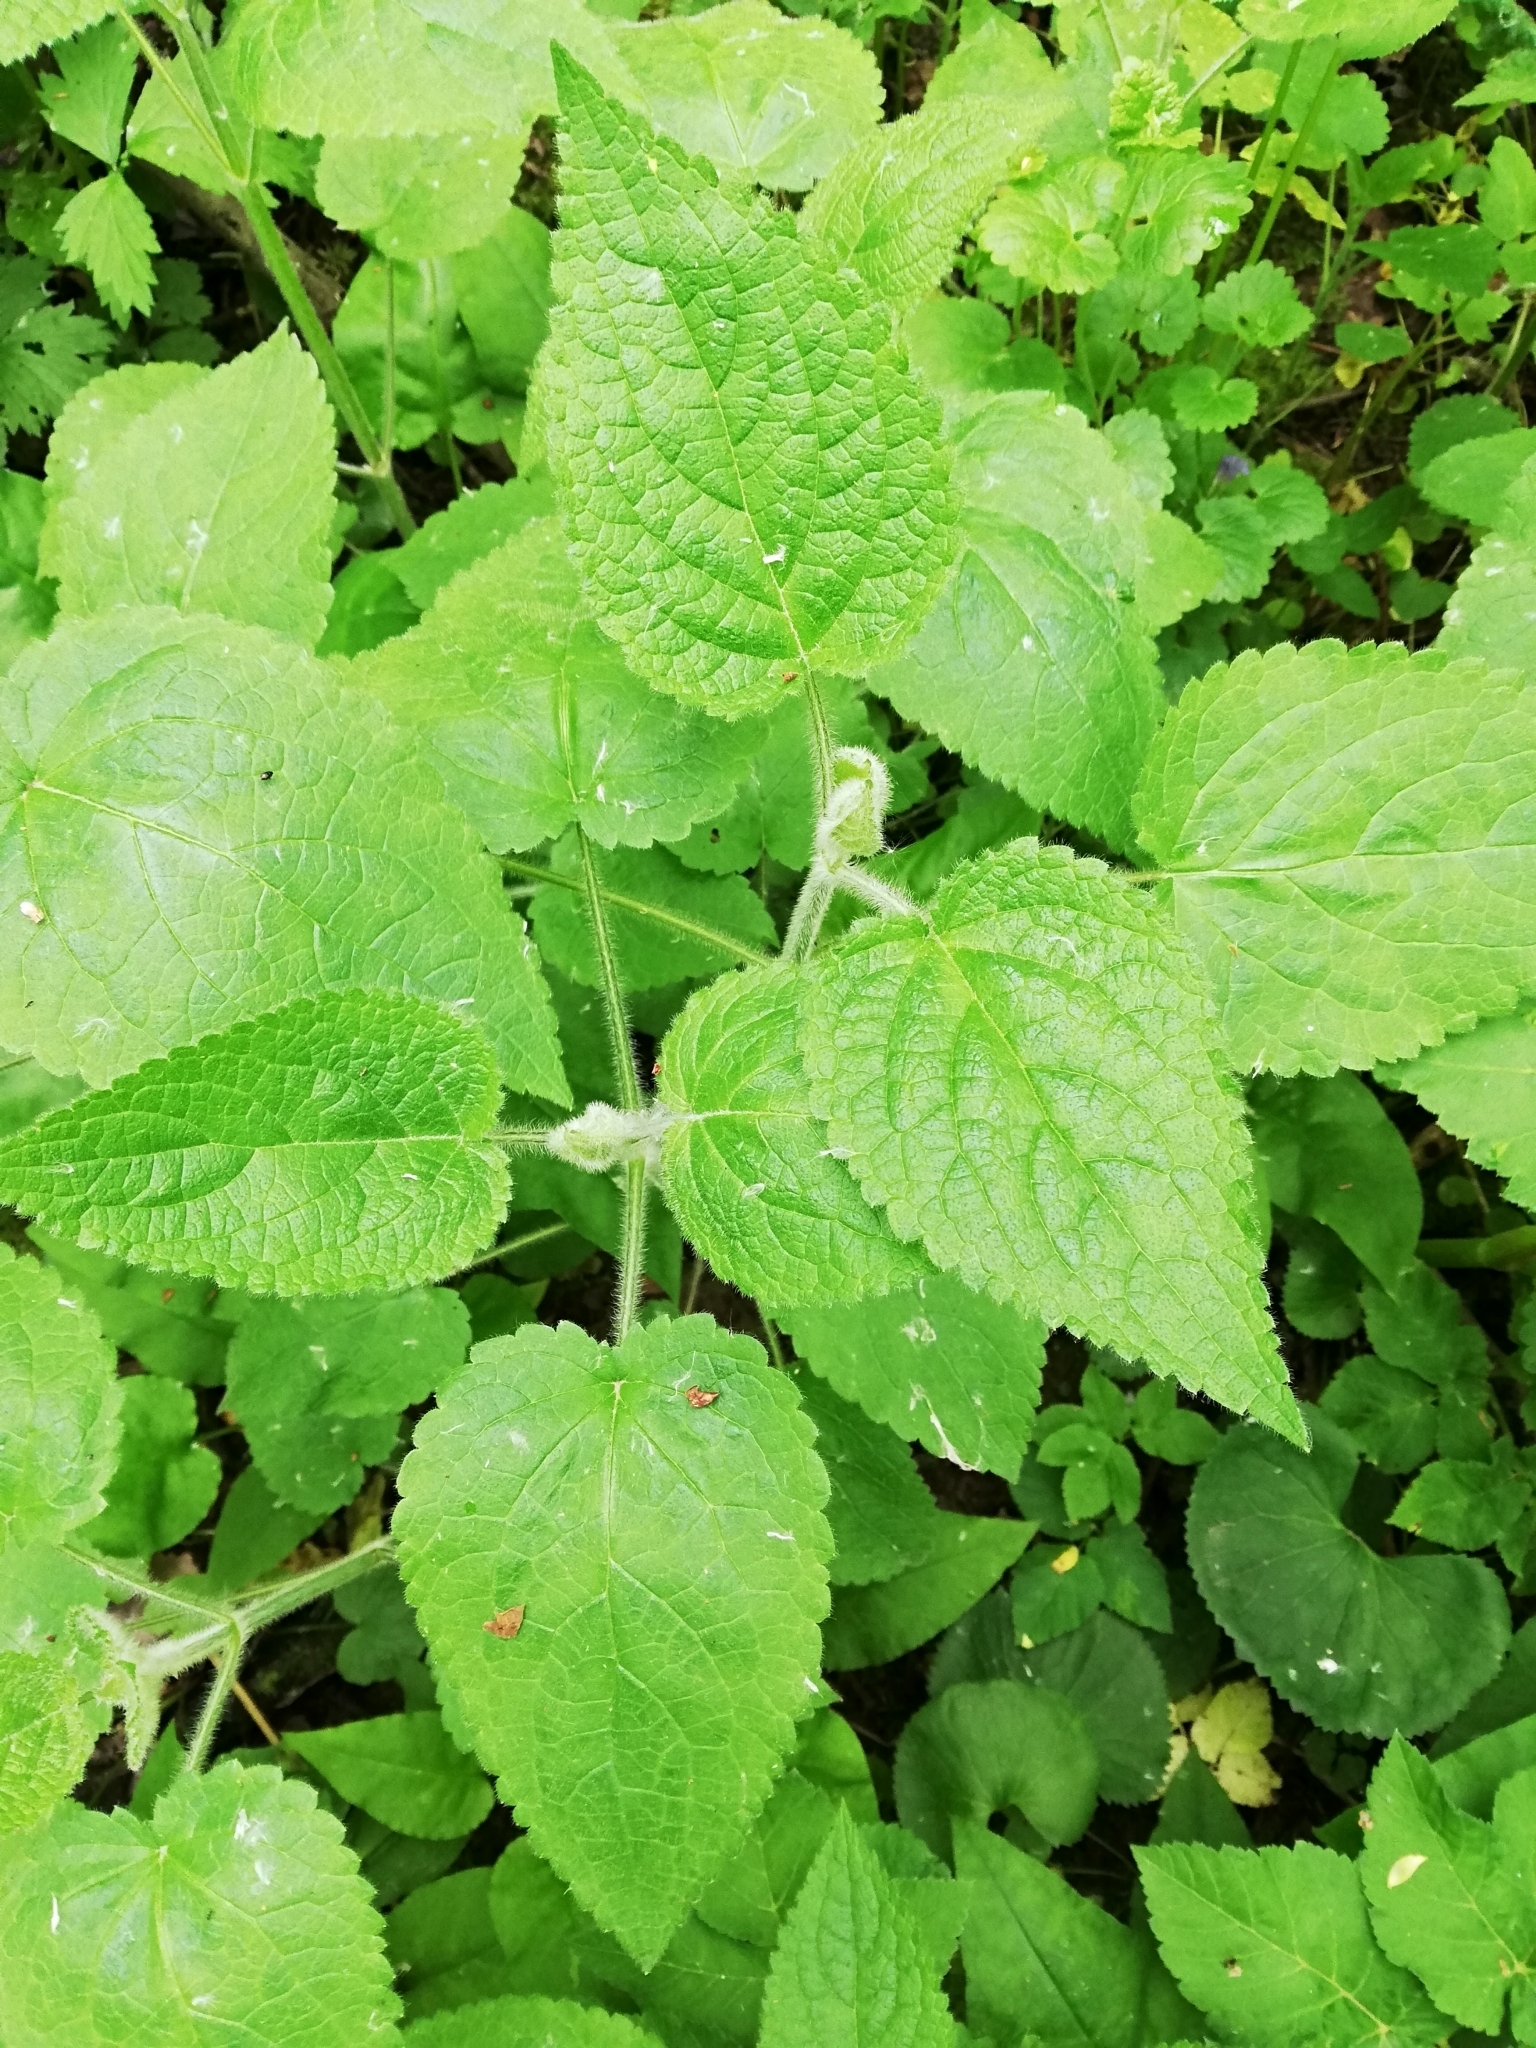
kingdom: Plantae
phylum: Tracheophyta
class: Magnoliopsida
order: Lamiales
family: Lamiaceae
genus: Stachys
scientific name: Stachys sylvatica
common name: Hedge woundwort
